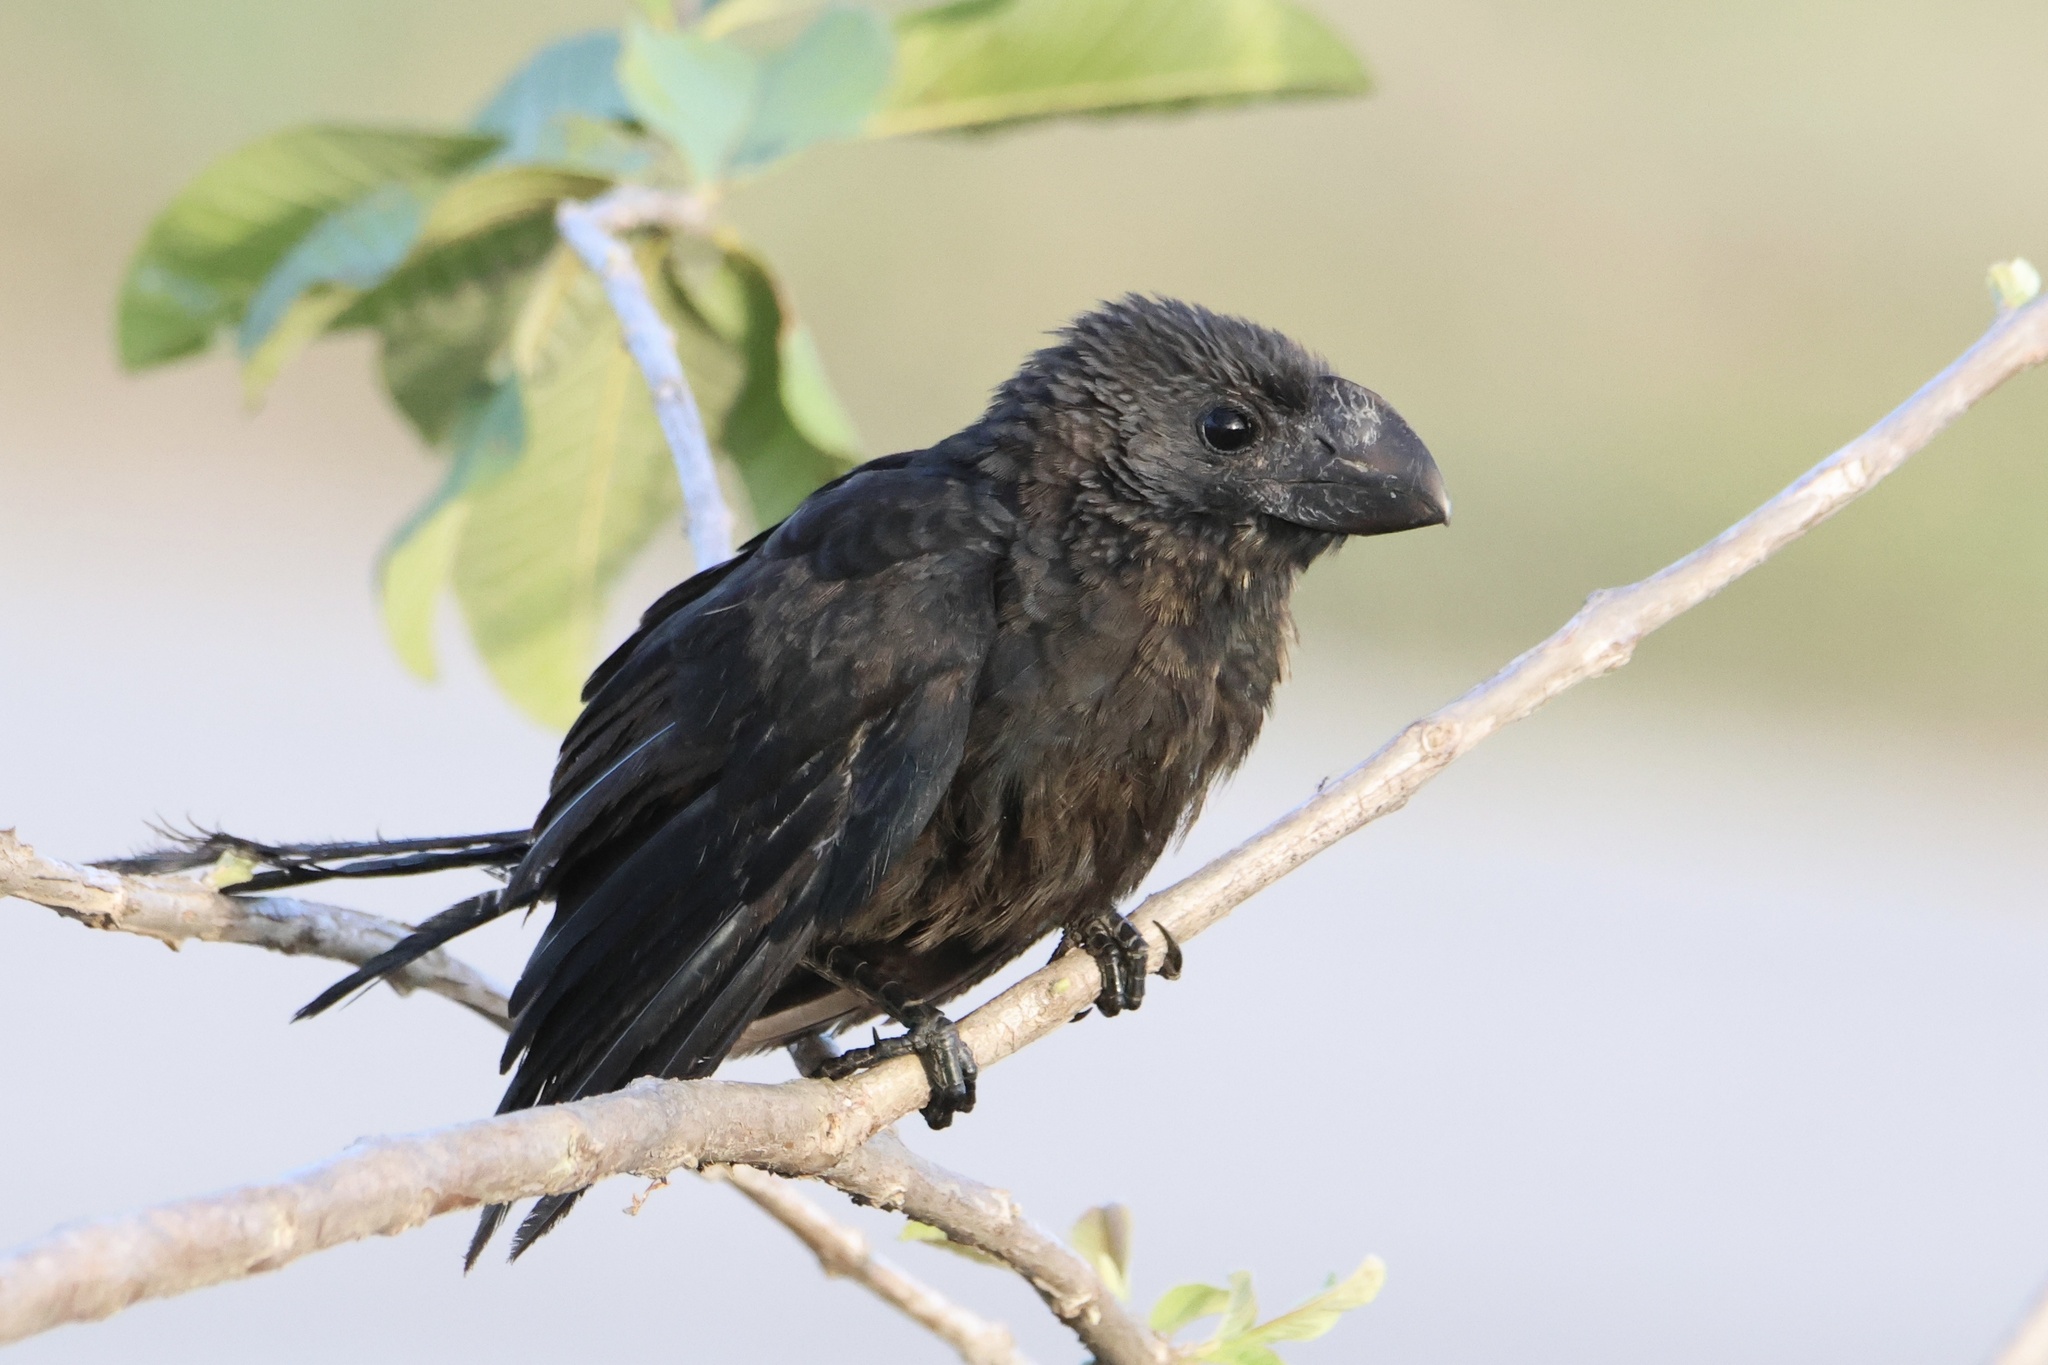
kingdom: Animalia
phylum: Chordata
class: Aves
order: Cuculiformes
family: Cuculidae
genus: Crotophaga
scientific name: Crotophaga ani
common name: Smooth-billed ani
